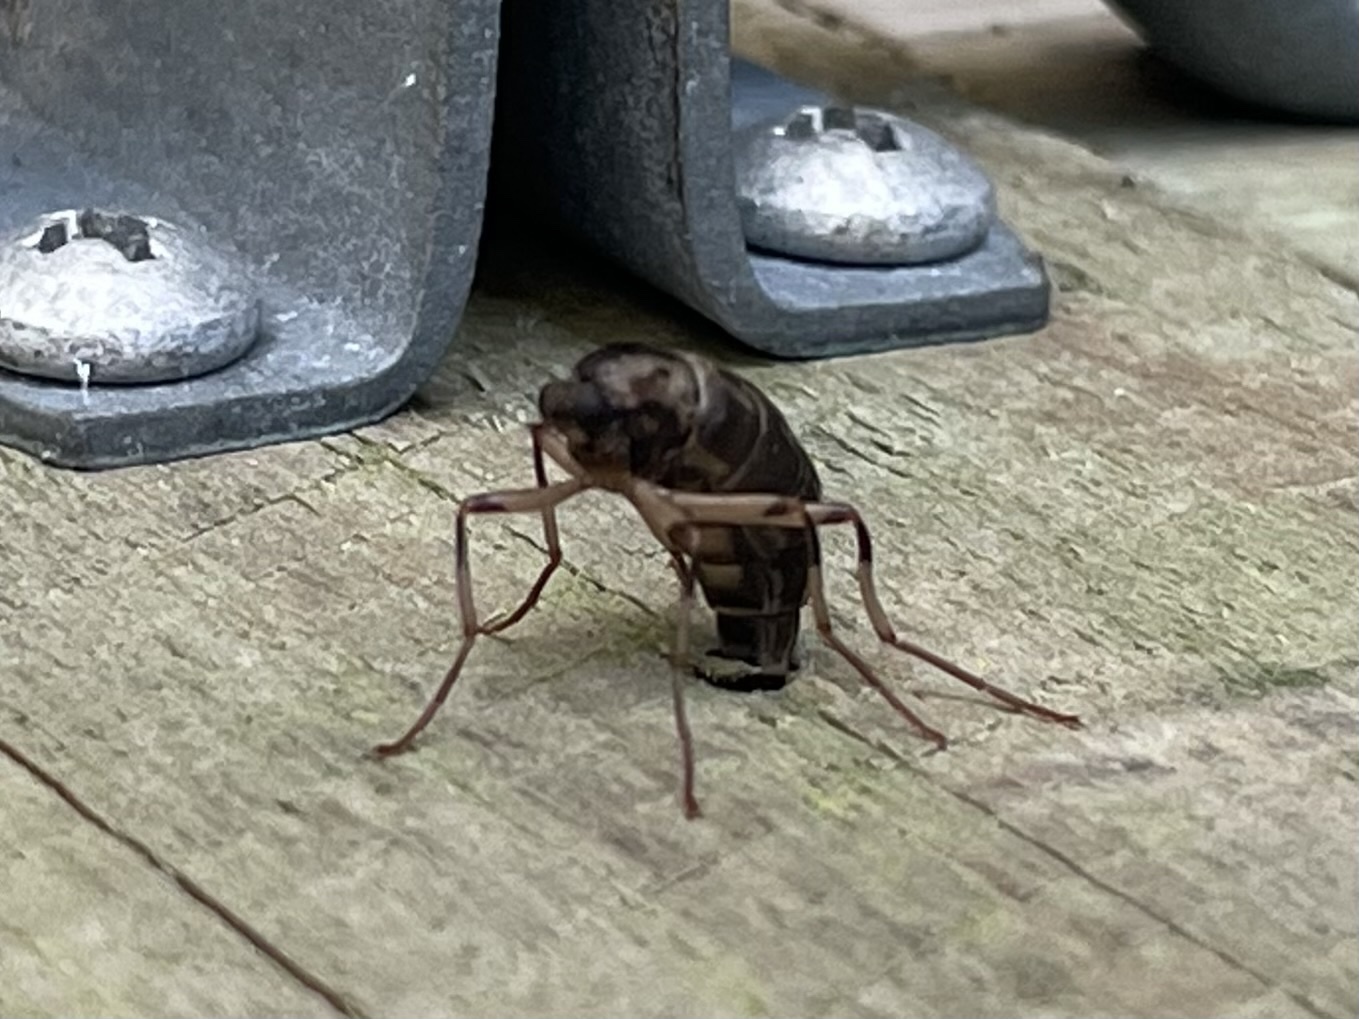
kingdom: Animalia
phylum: Arthropoda
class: Insecta
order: Diptera
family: Stratiomyidae
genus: Boreoides
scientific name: Boreoides tasmaniensis
